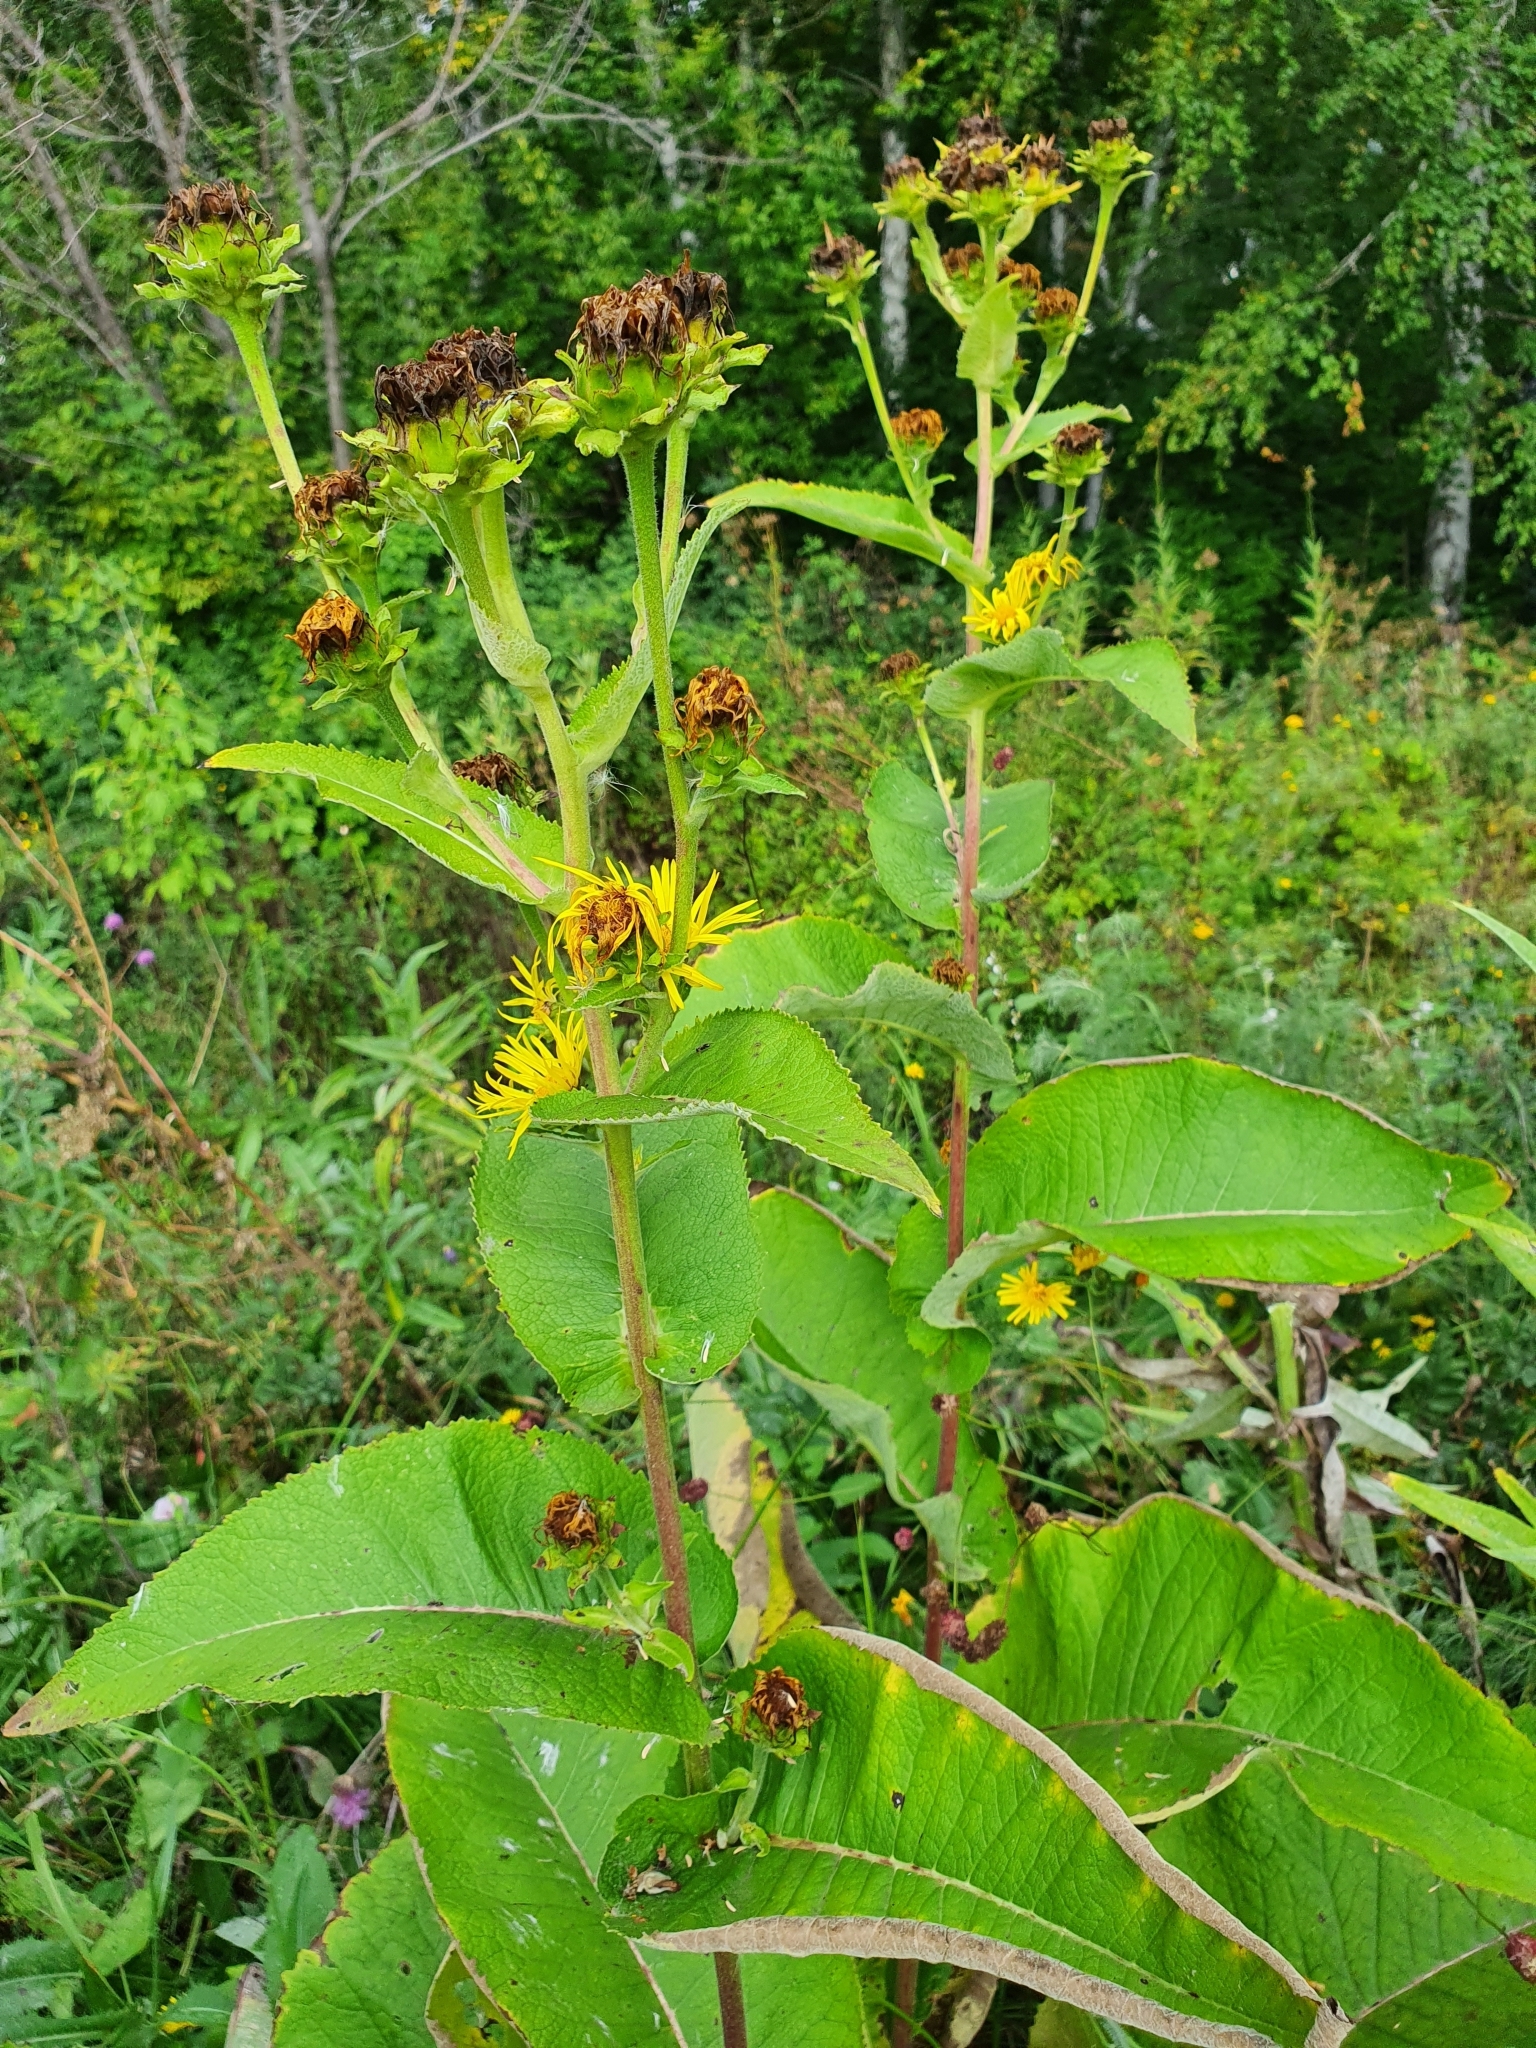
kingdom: Plantae
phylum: Tracheophyta
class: Magnoliopsida
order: Asterales
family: Asteraceae
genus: Inula
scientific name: Inula helenium
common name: Elecampane
